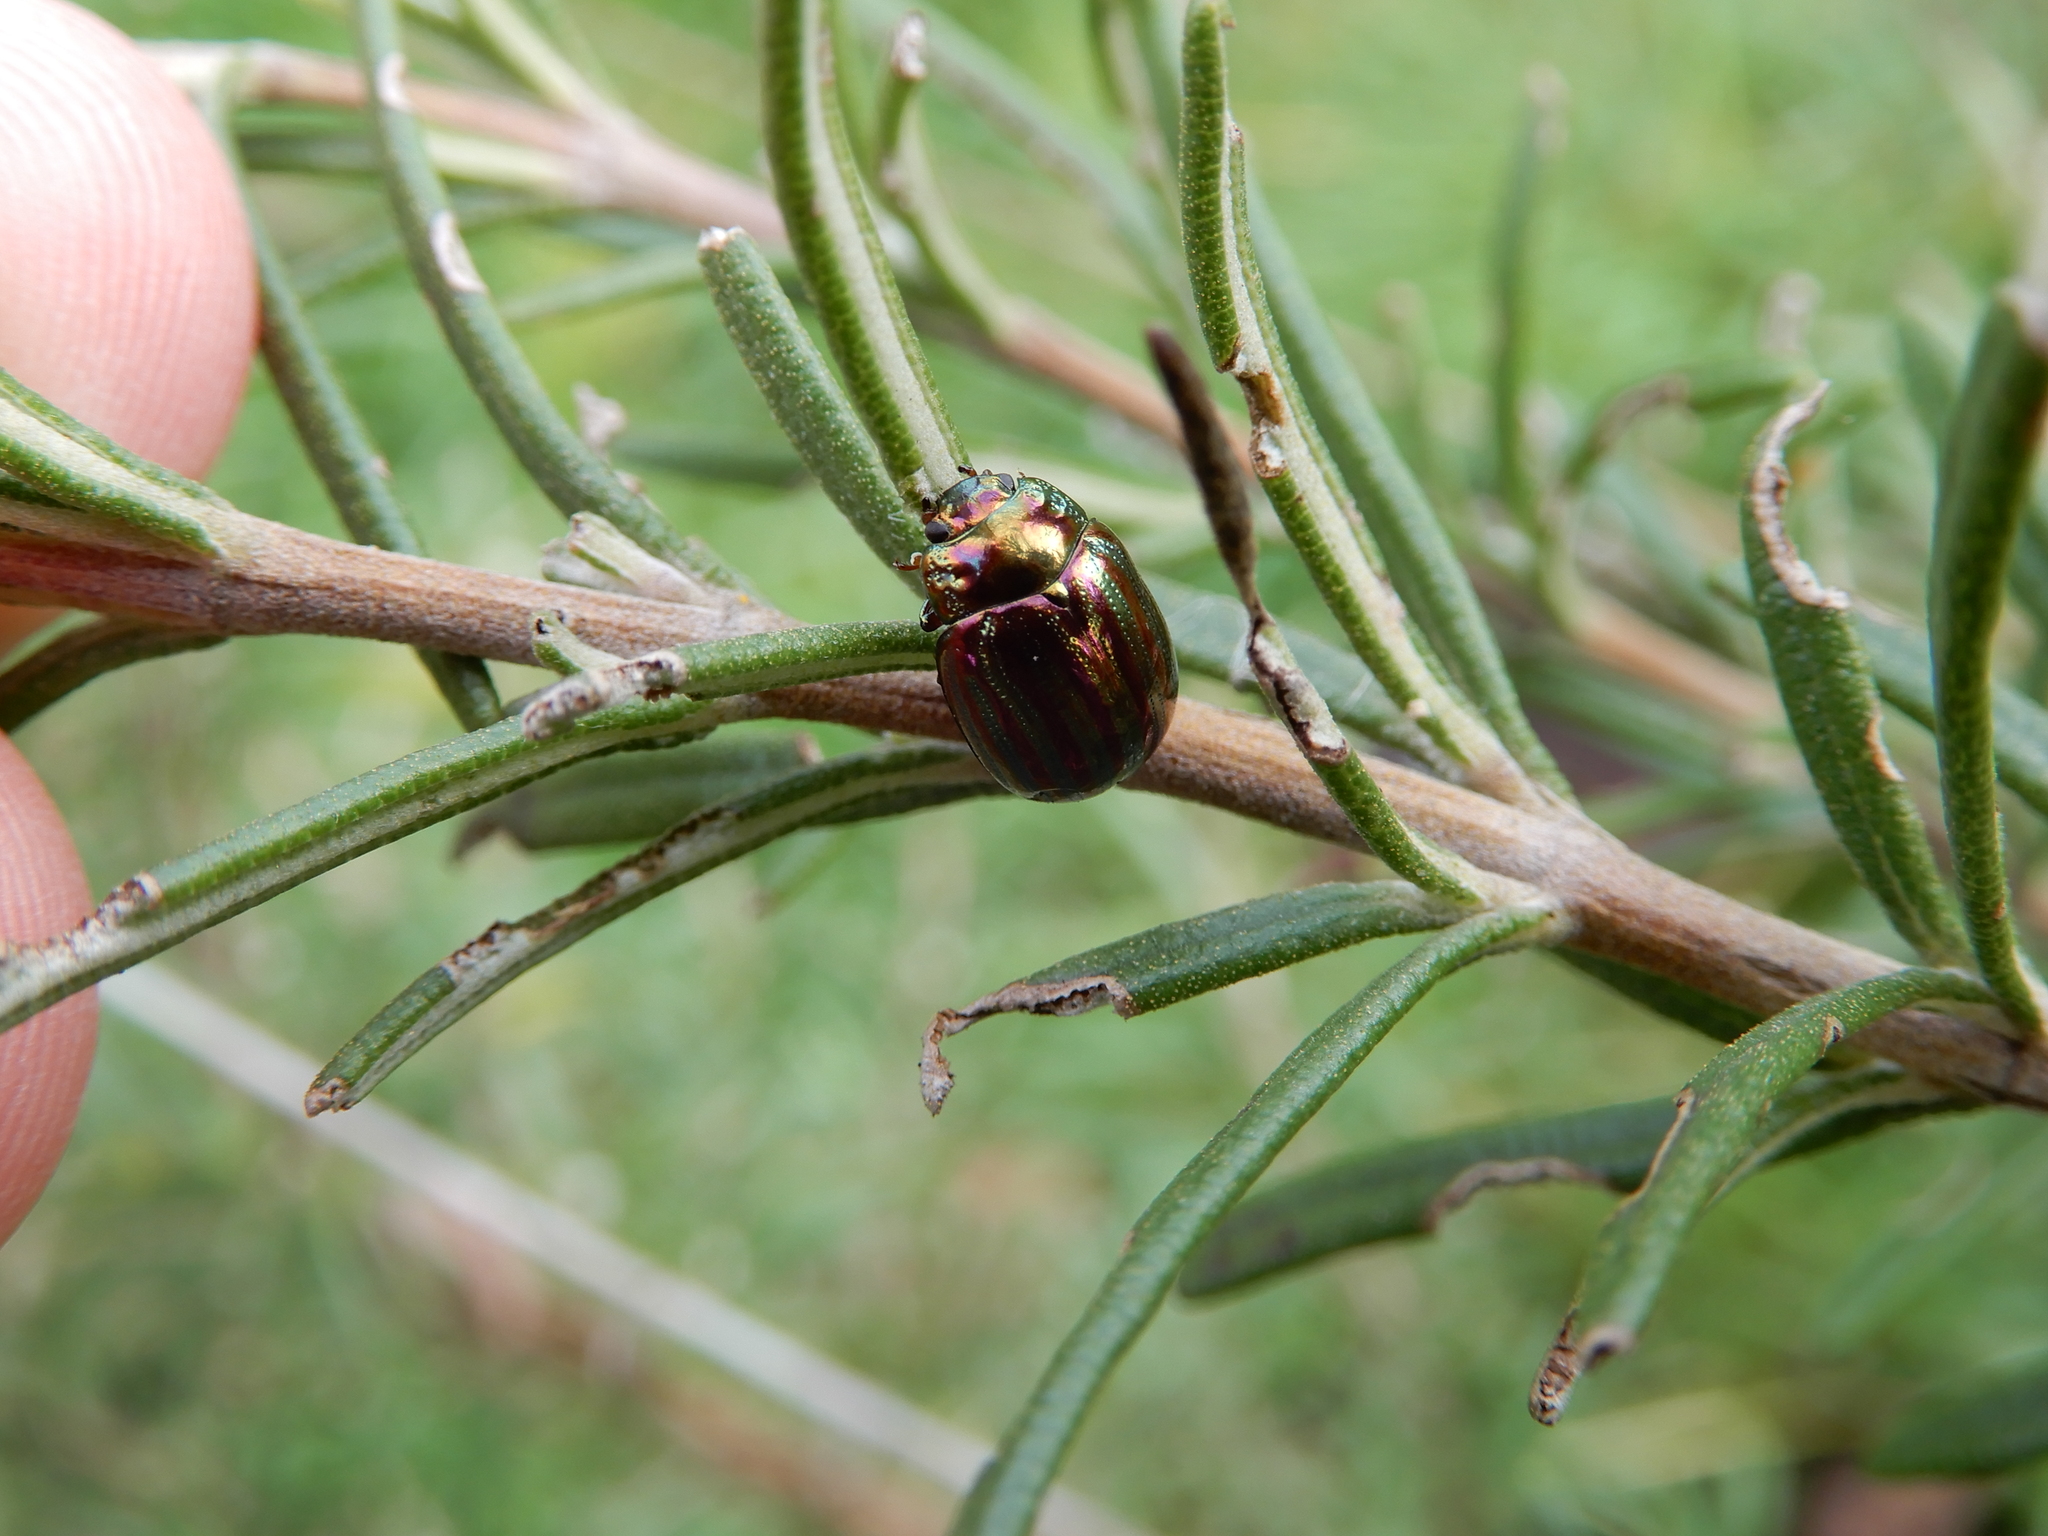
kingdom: Animalia
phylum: Arthropoda
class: Insecta
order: Coleoptera
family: Chrysomelidae
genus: Chrysolina
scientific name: Chrysolina americana
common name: Rosemary beetle
